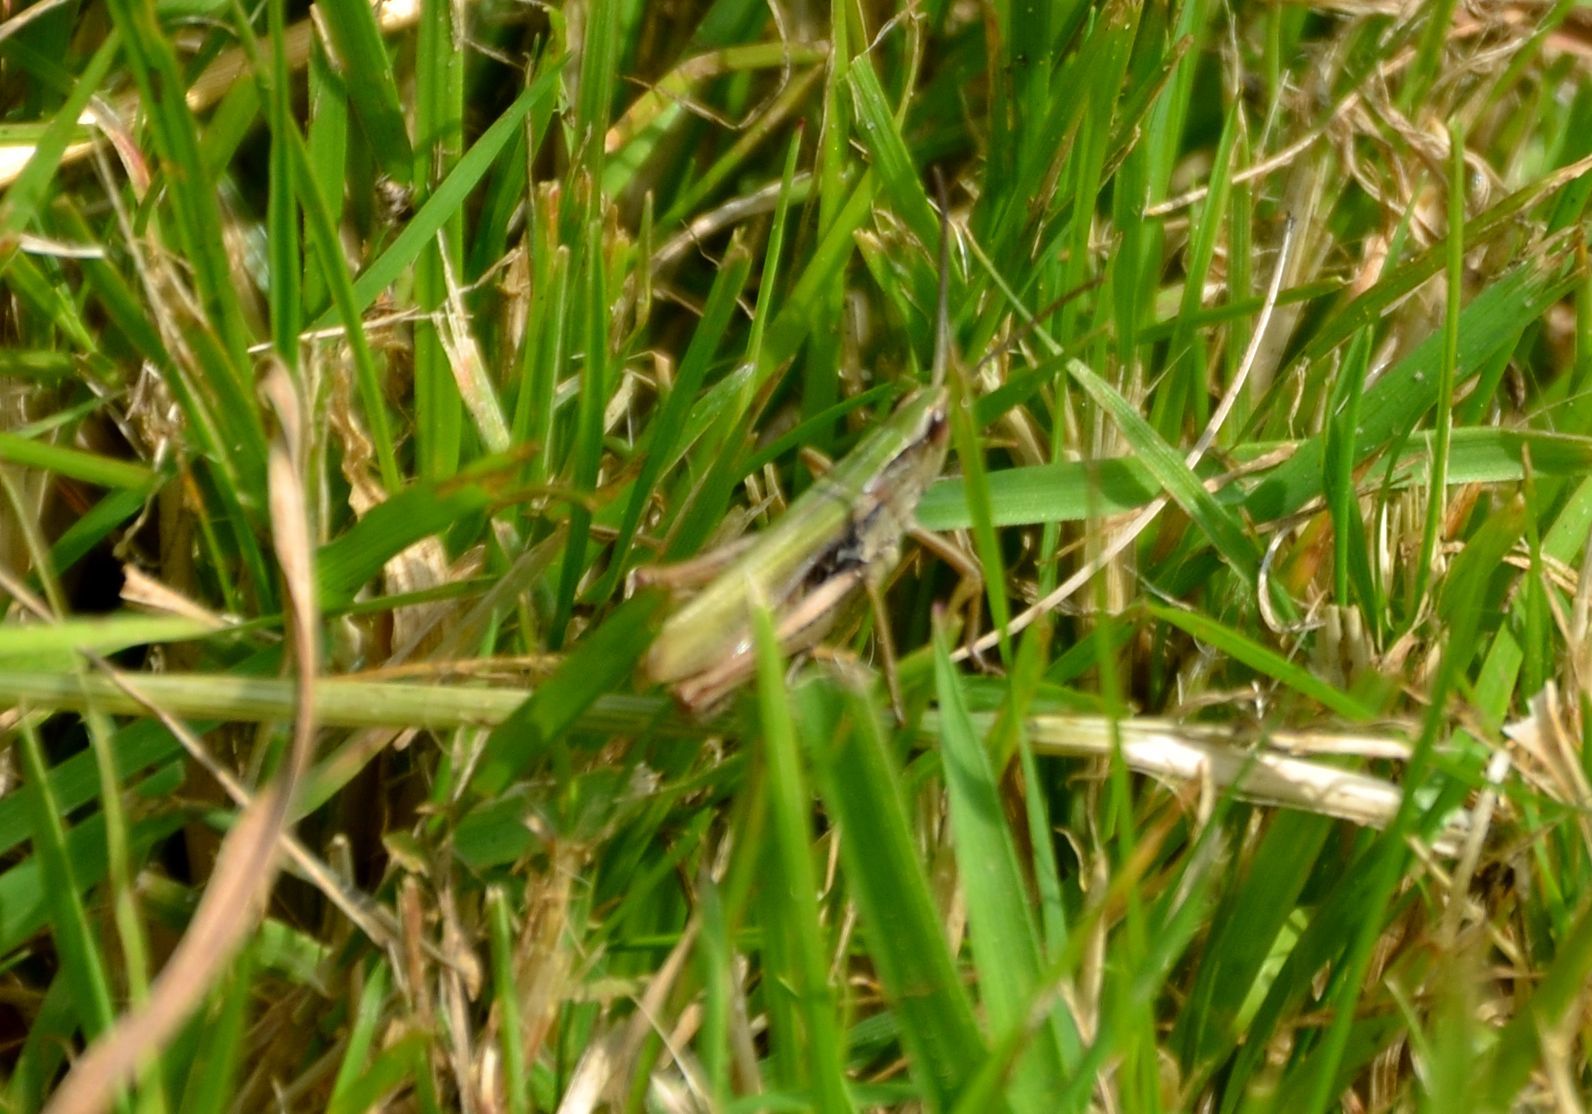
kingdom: Animalia
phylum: Arthropoda
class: Insecta
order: Orthoptera
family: Acrididae
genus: Chorthippus
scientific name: Chorthippus albomarginatus
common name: Lesser marsh grasshopper
